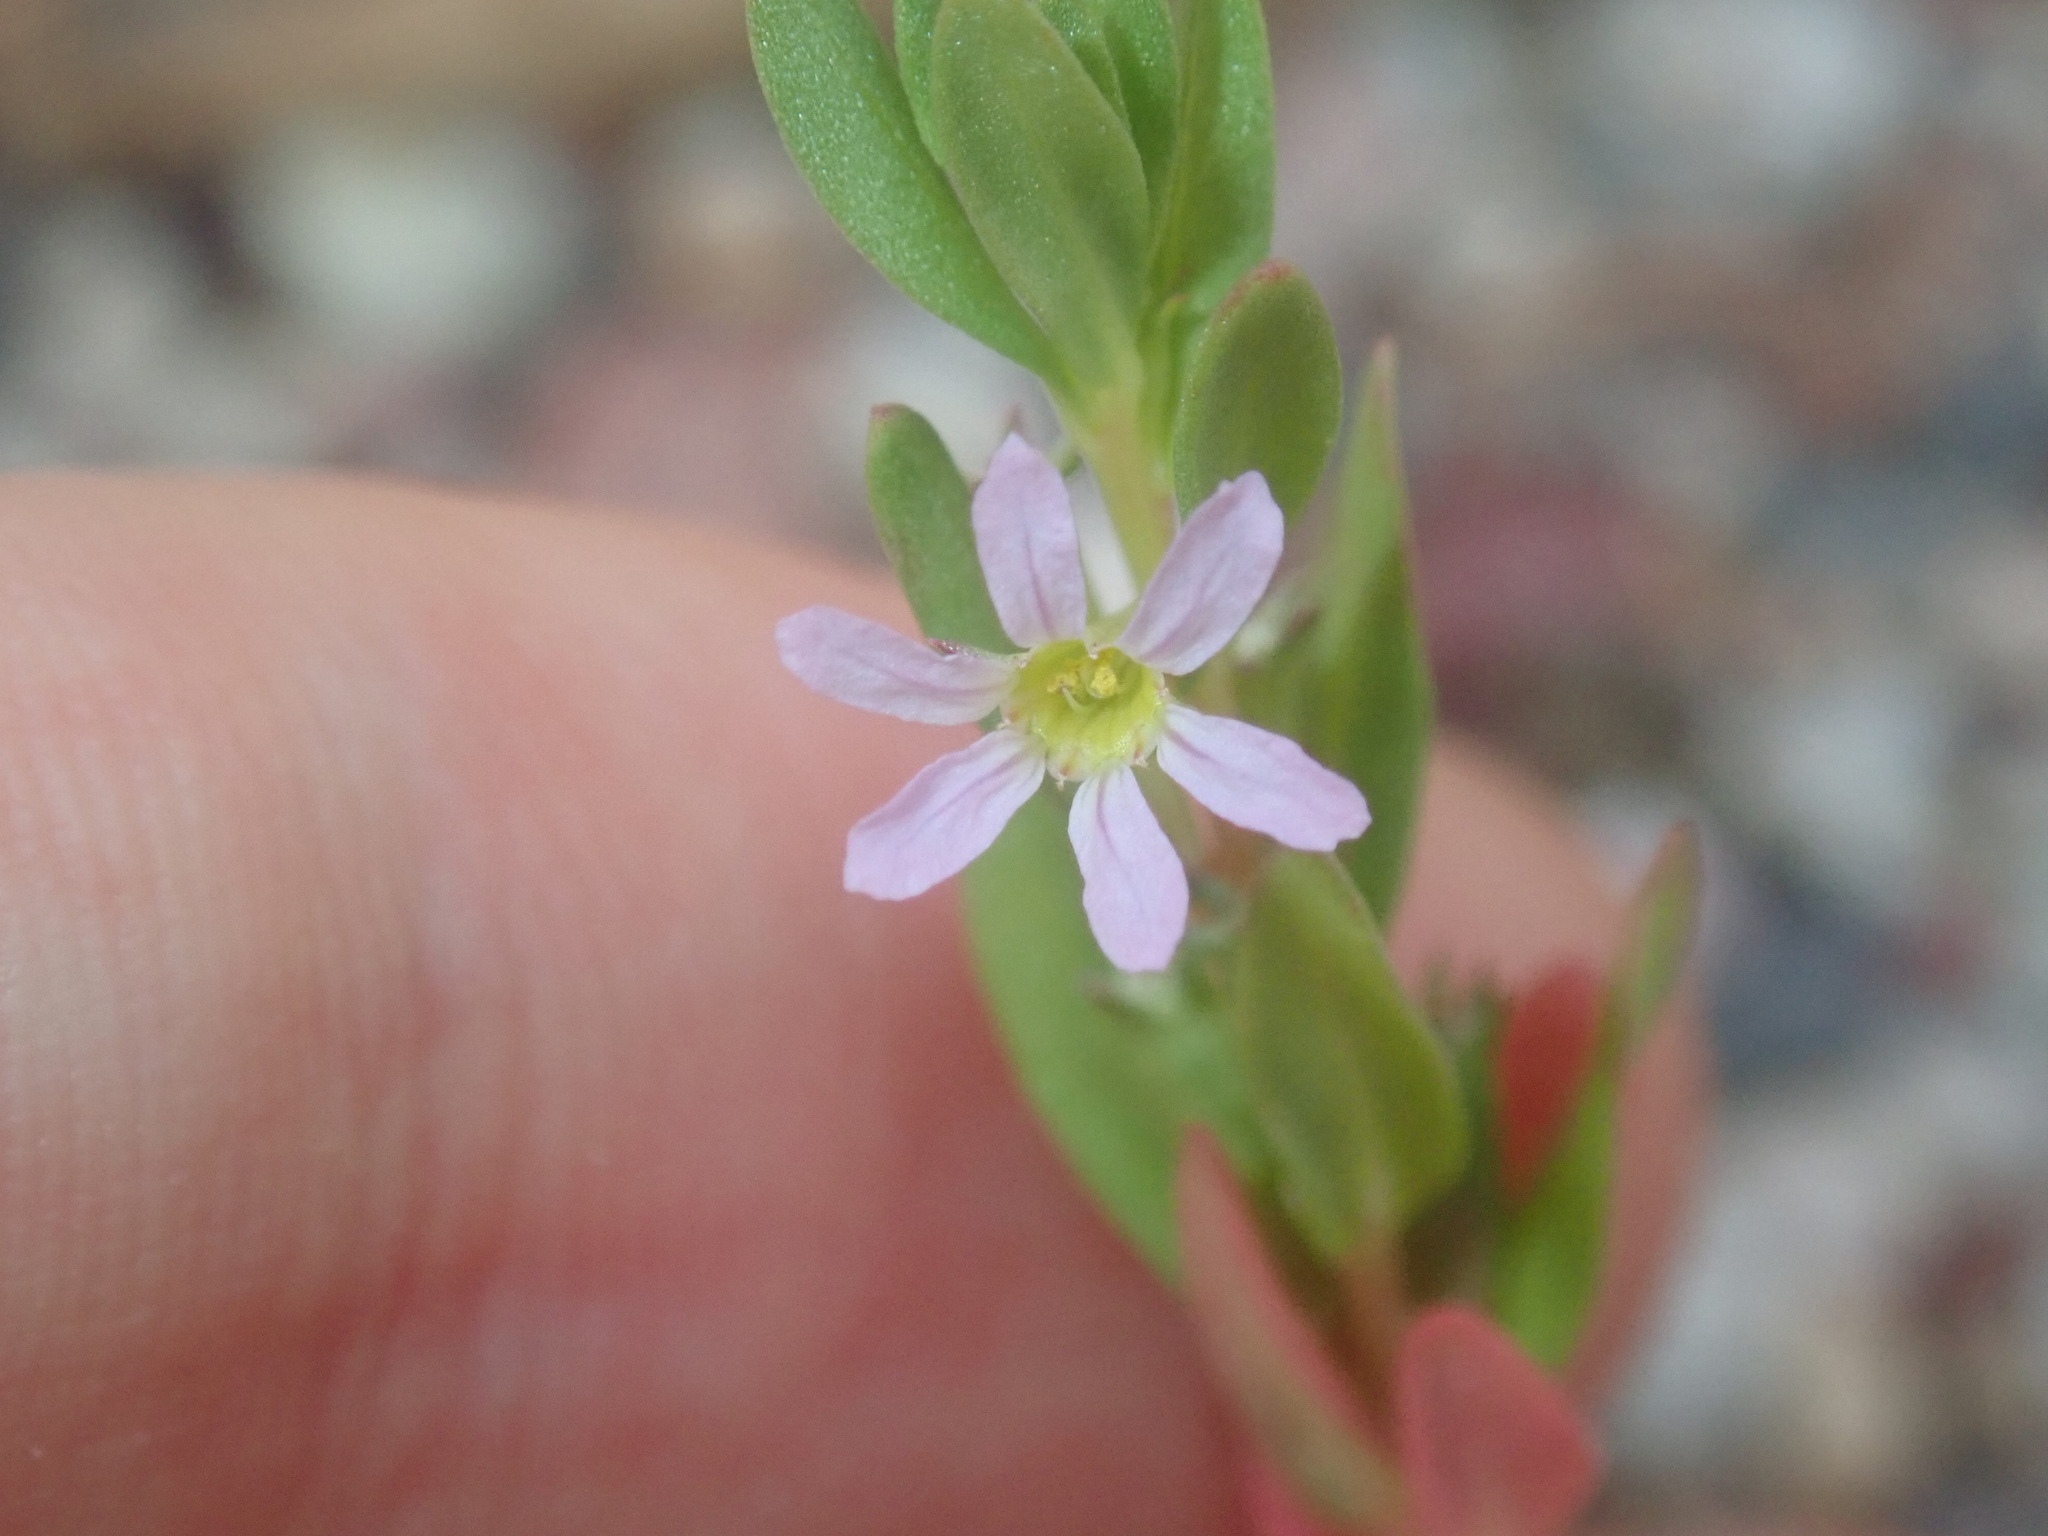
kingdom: Plantae
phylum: Tracheophyta
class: Magnoliopsida
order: Myrtales
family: Lythraceae
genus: Lythrum
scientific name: Lythrum hyssopifolia
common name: Grass-poly
